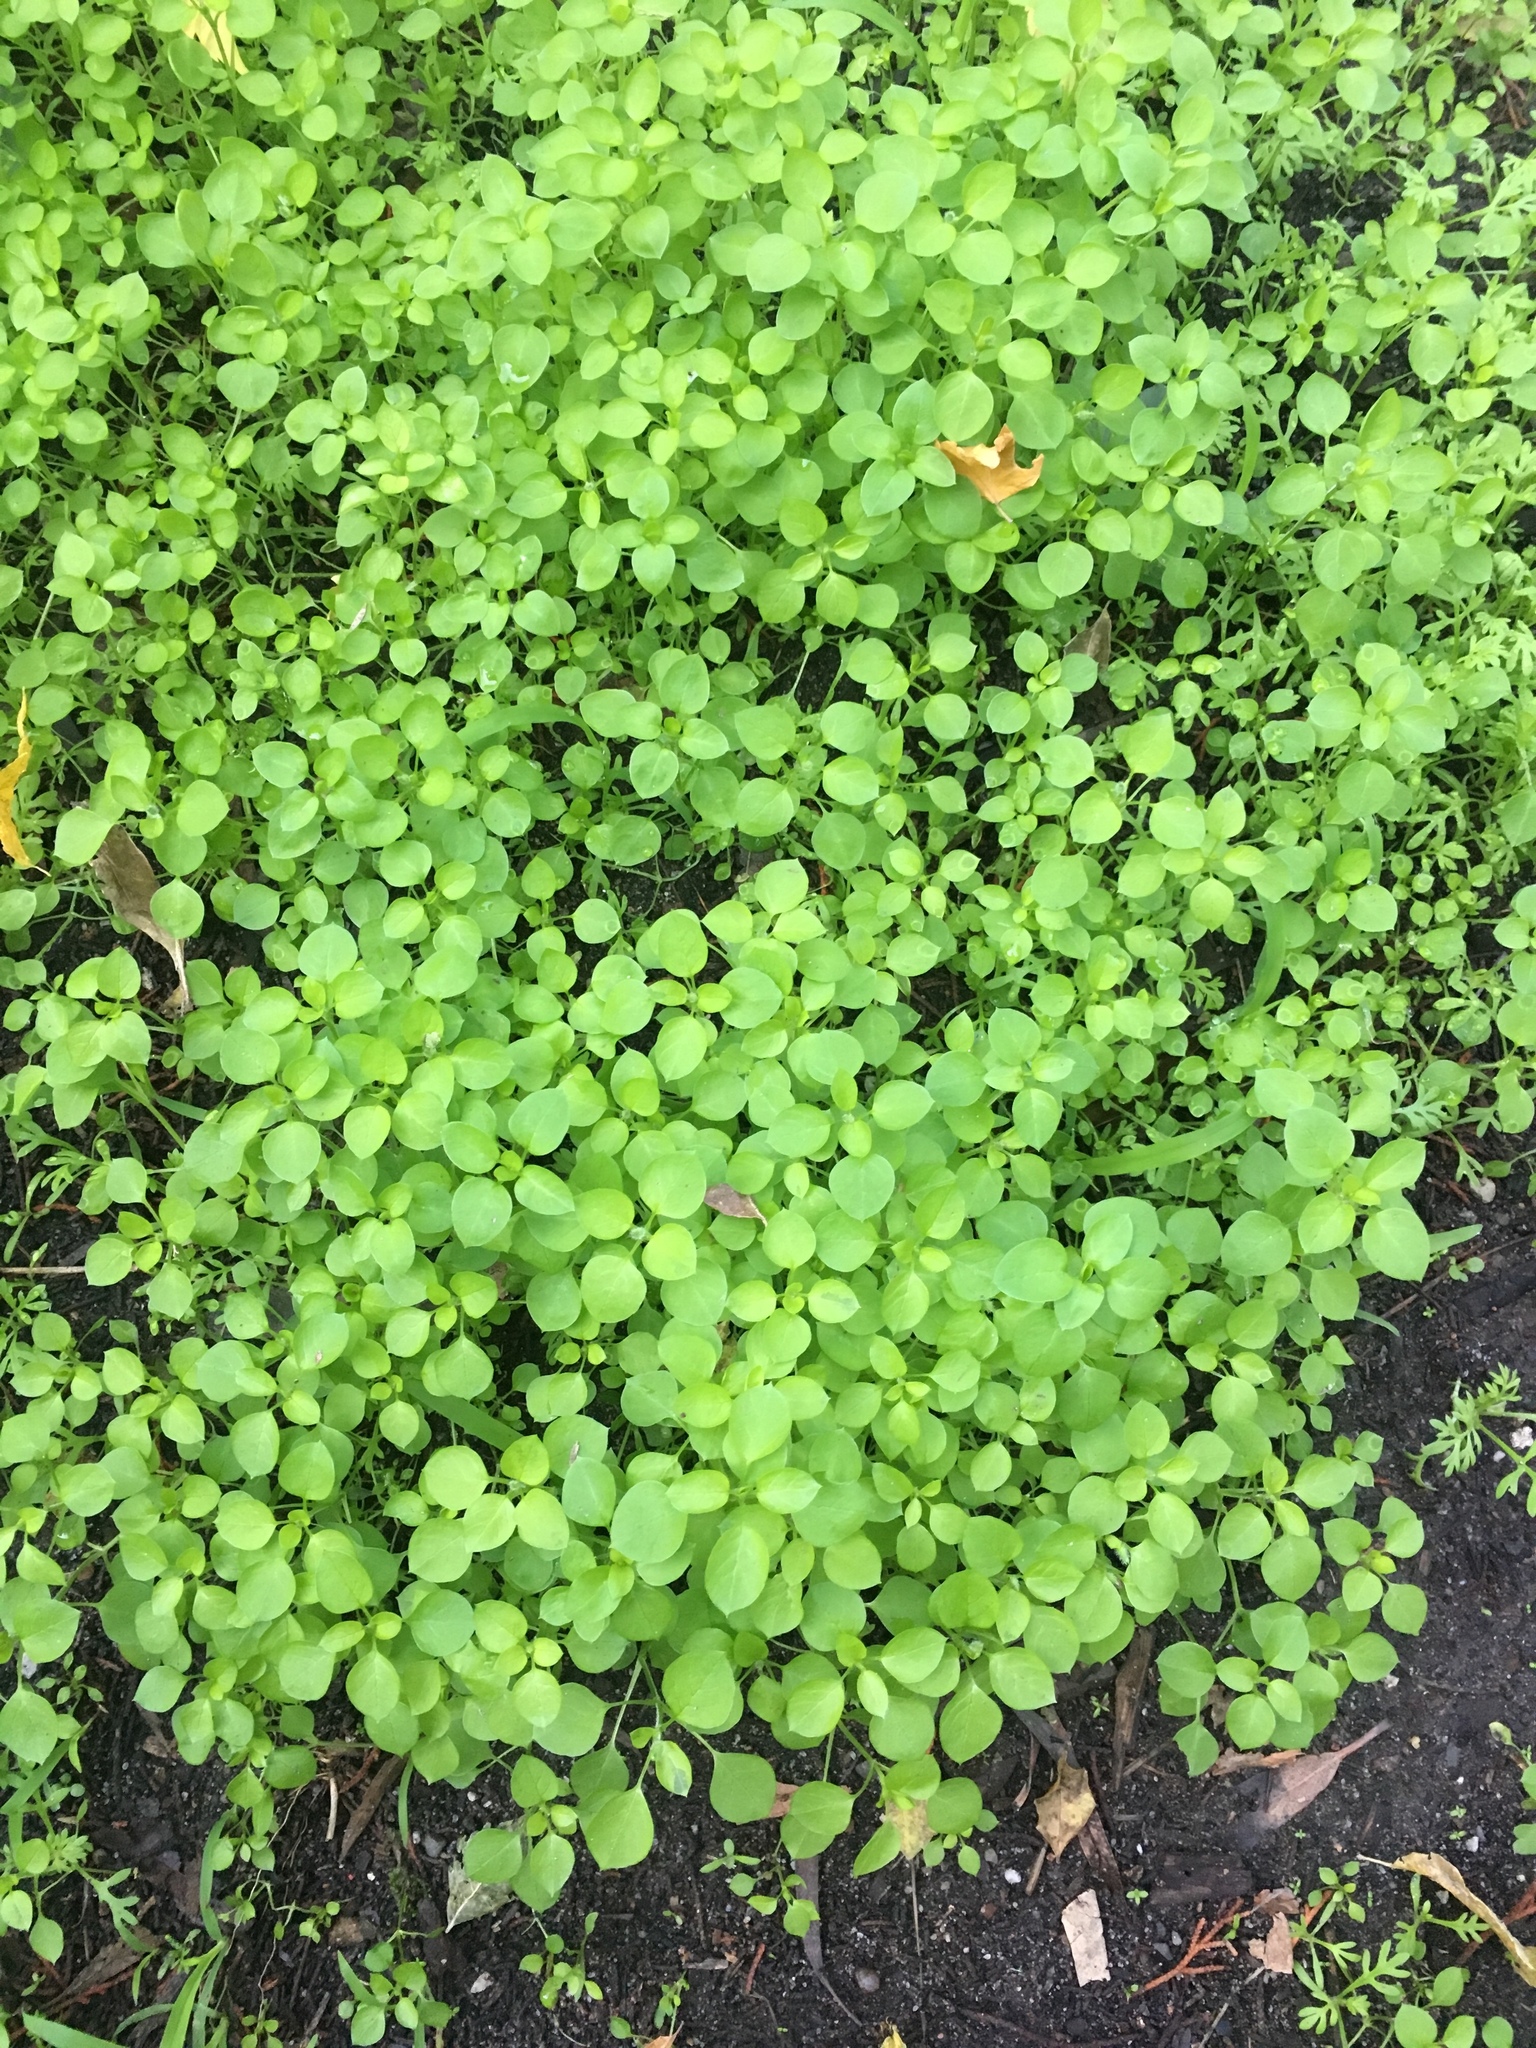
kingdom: Plantae
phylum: Tracheophyta
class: Magnoliopsida
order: Caryophyllales
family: Caryophyllaceae
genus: Stellaria
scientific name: Stellaria media
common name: Common chickweed
